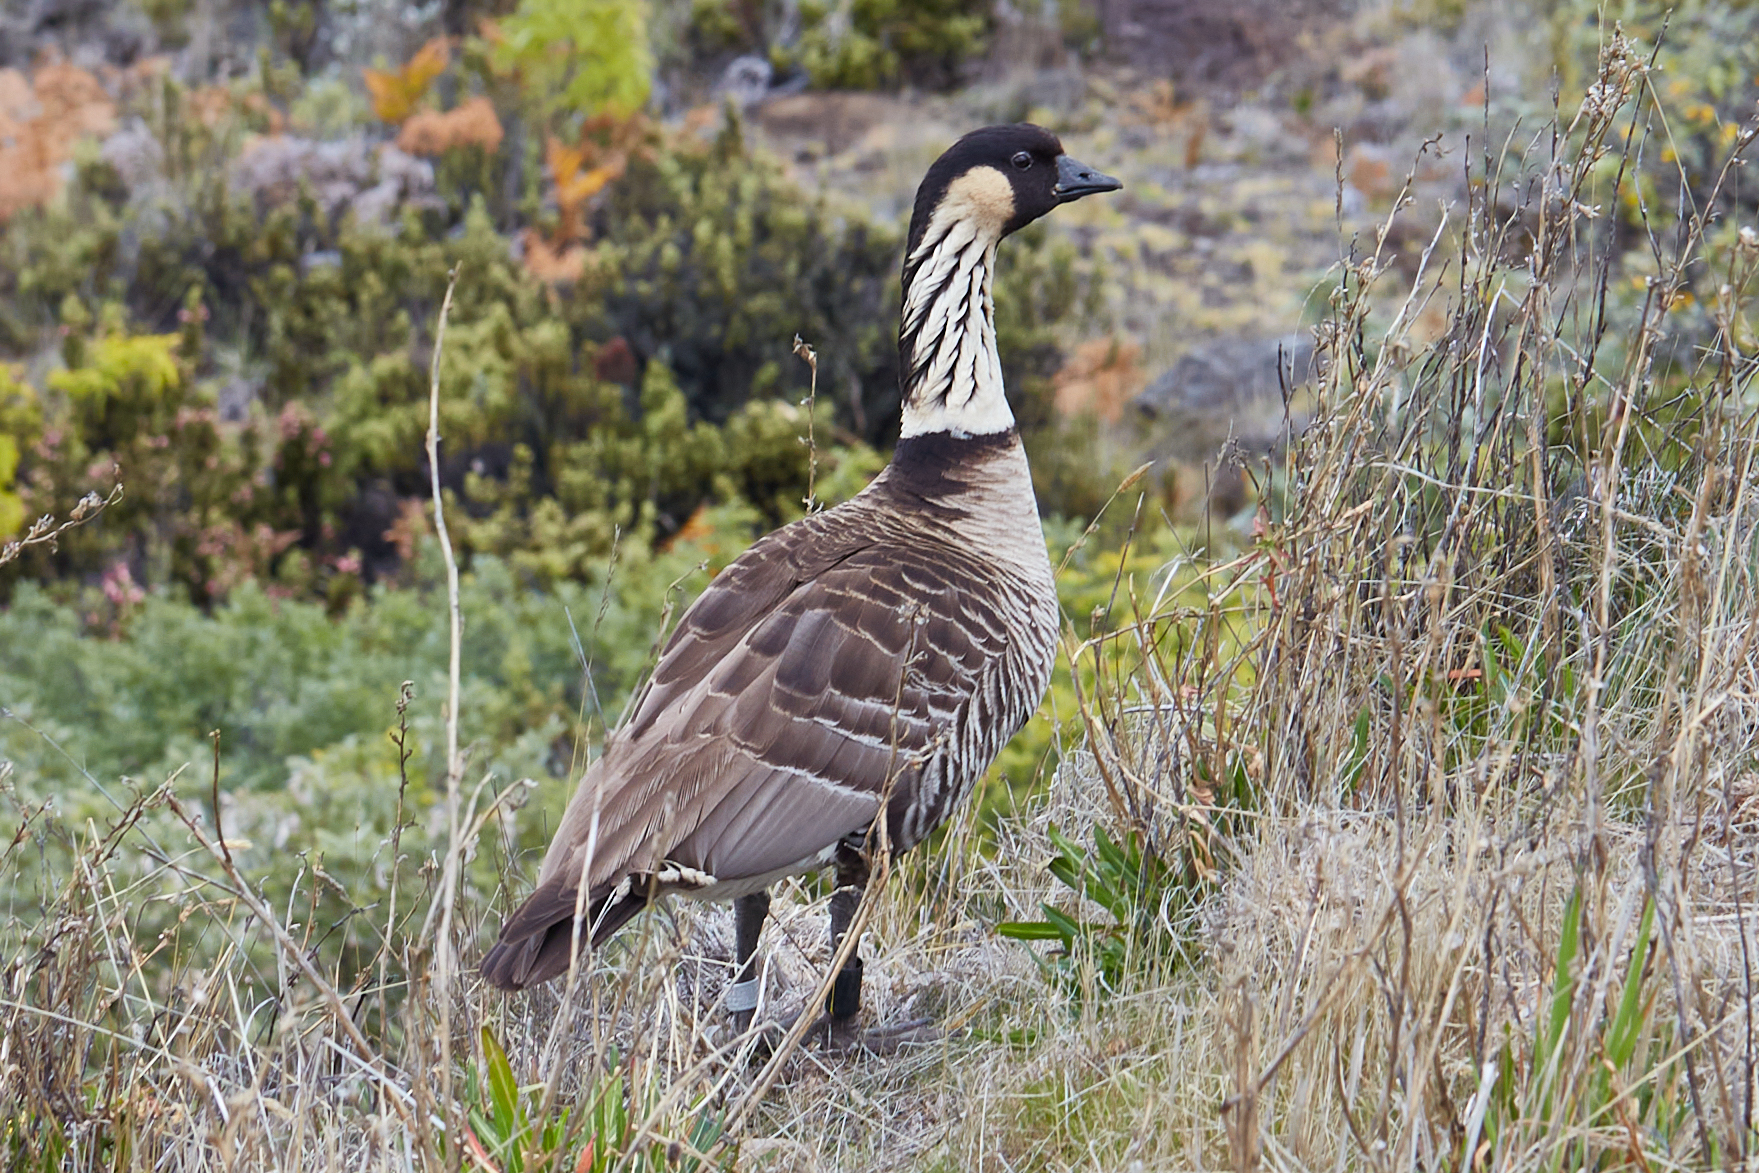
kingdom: Animalia
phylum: Chordata
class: Aves
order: Anseriformes
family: Anatidae
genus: Branta
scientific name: Branta sandvicensis
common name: Nene
